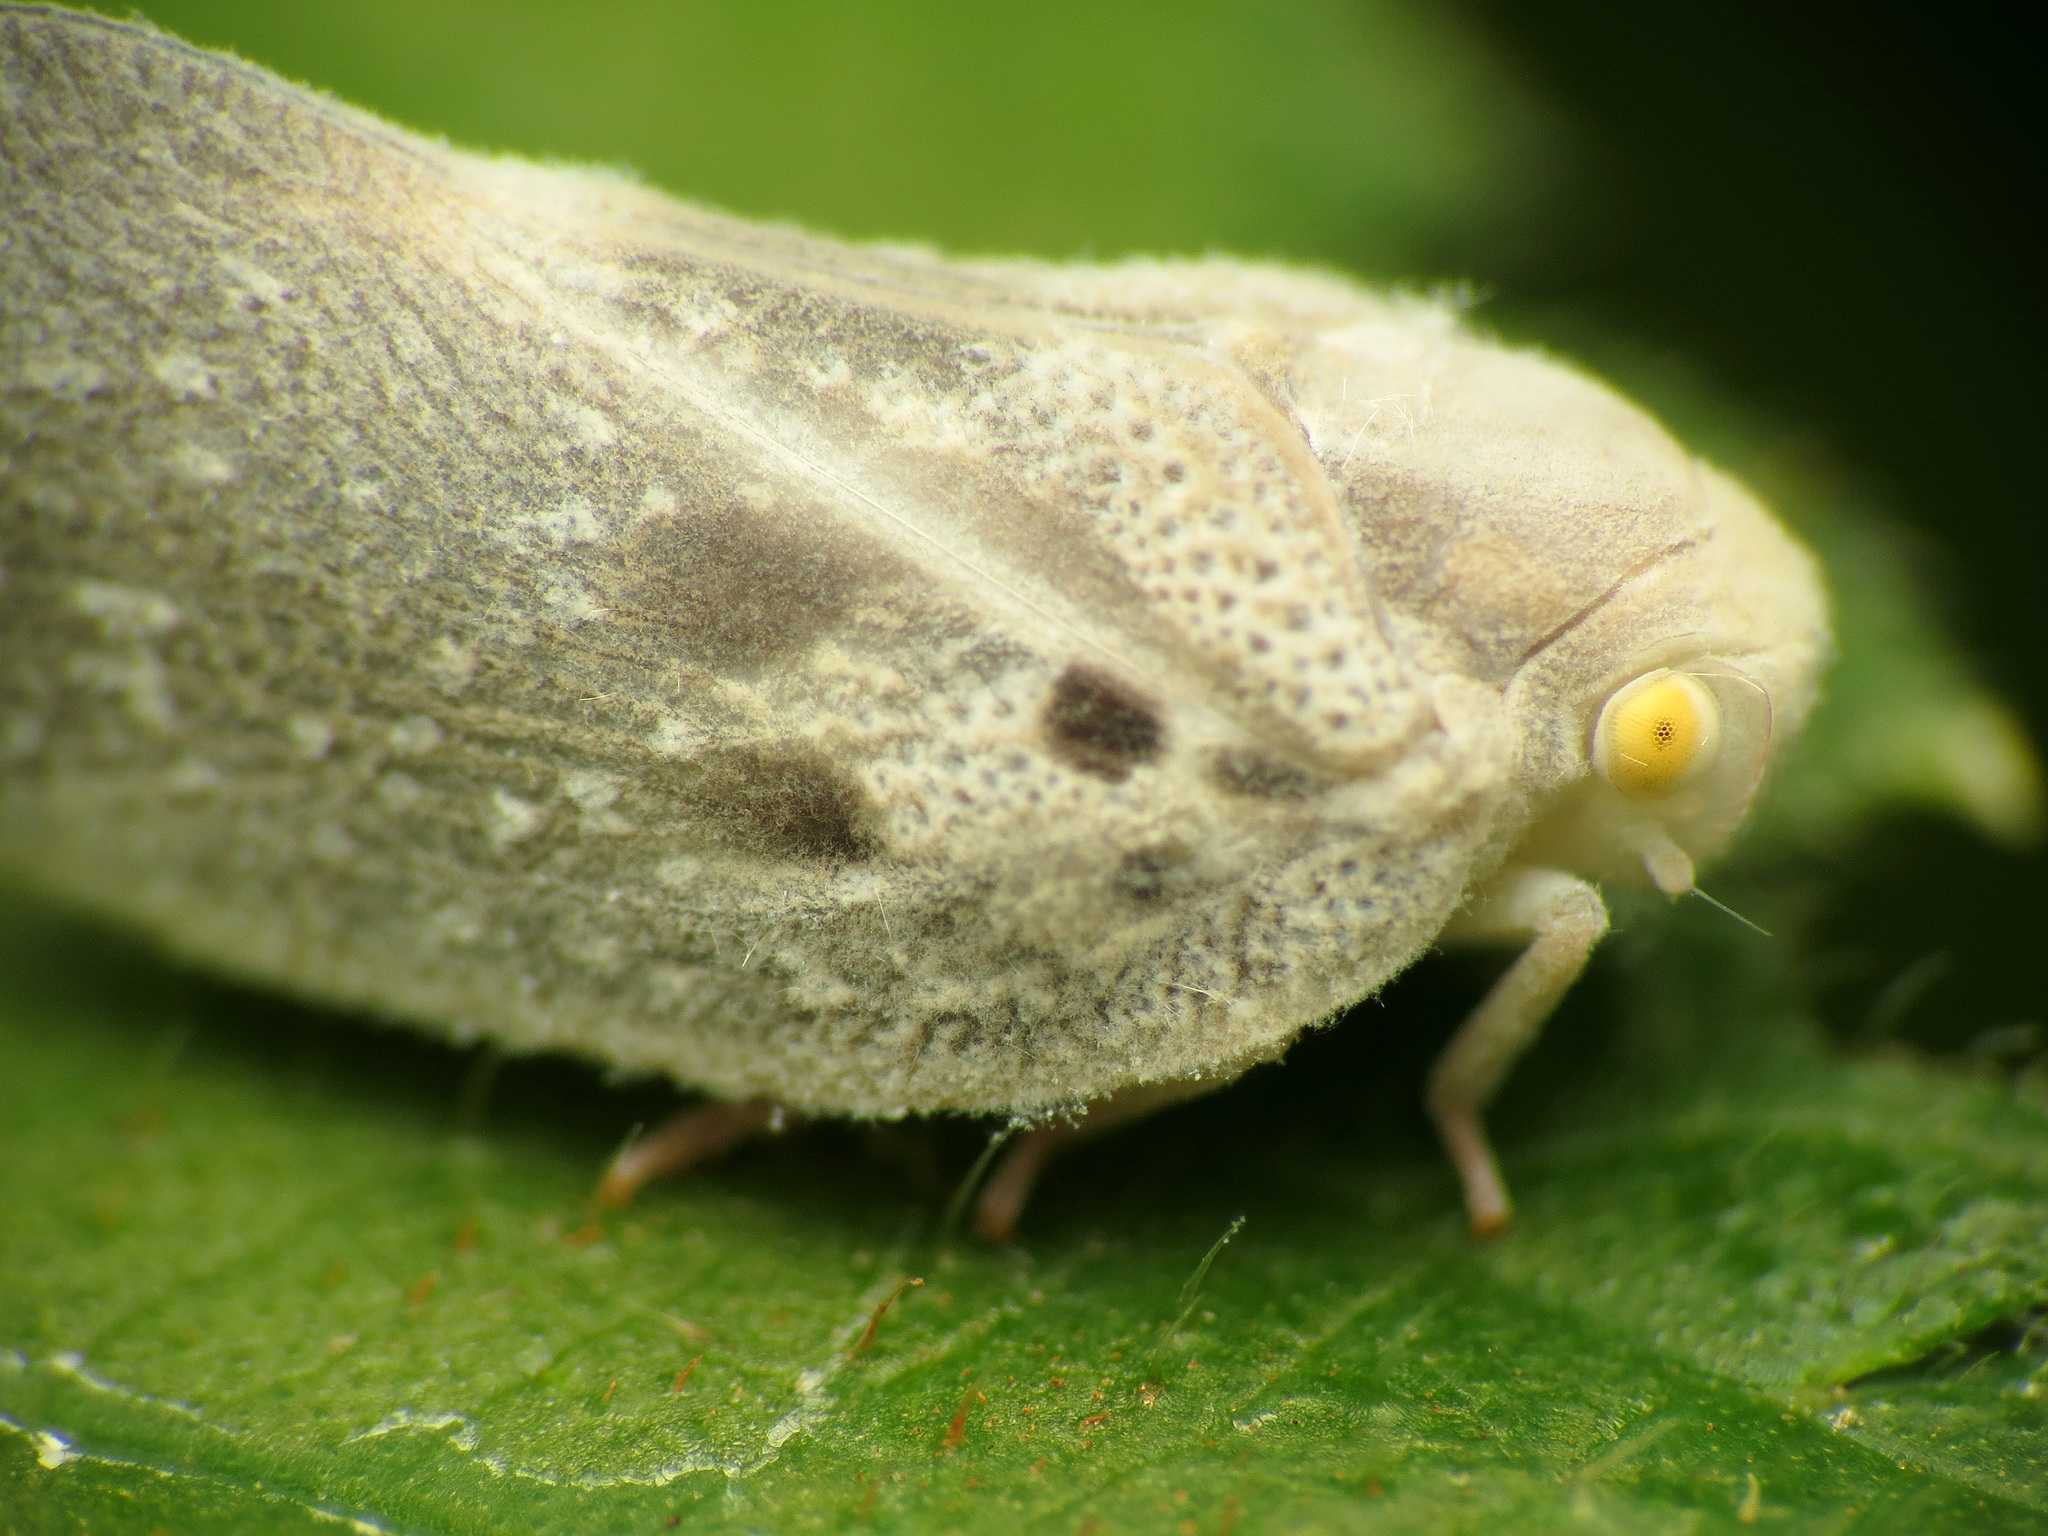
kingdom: Animalia
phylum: Arthropoda
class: Insecta
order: Hemiptera
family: Flatidae
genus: Metcalfa
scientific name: Metcalfa pruinosa
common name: Citrus flatid planthopper
